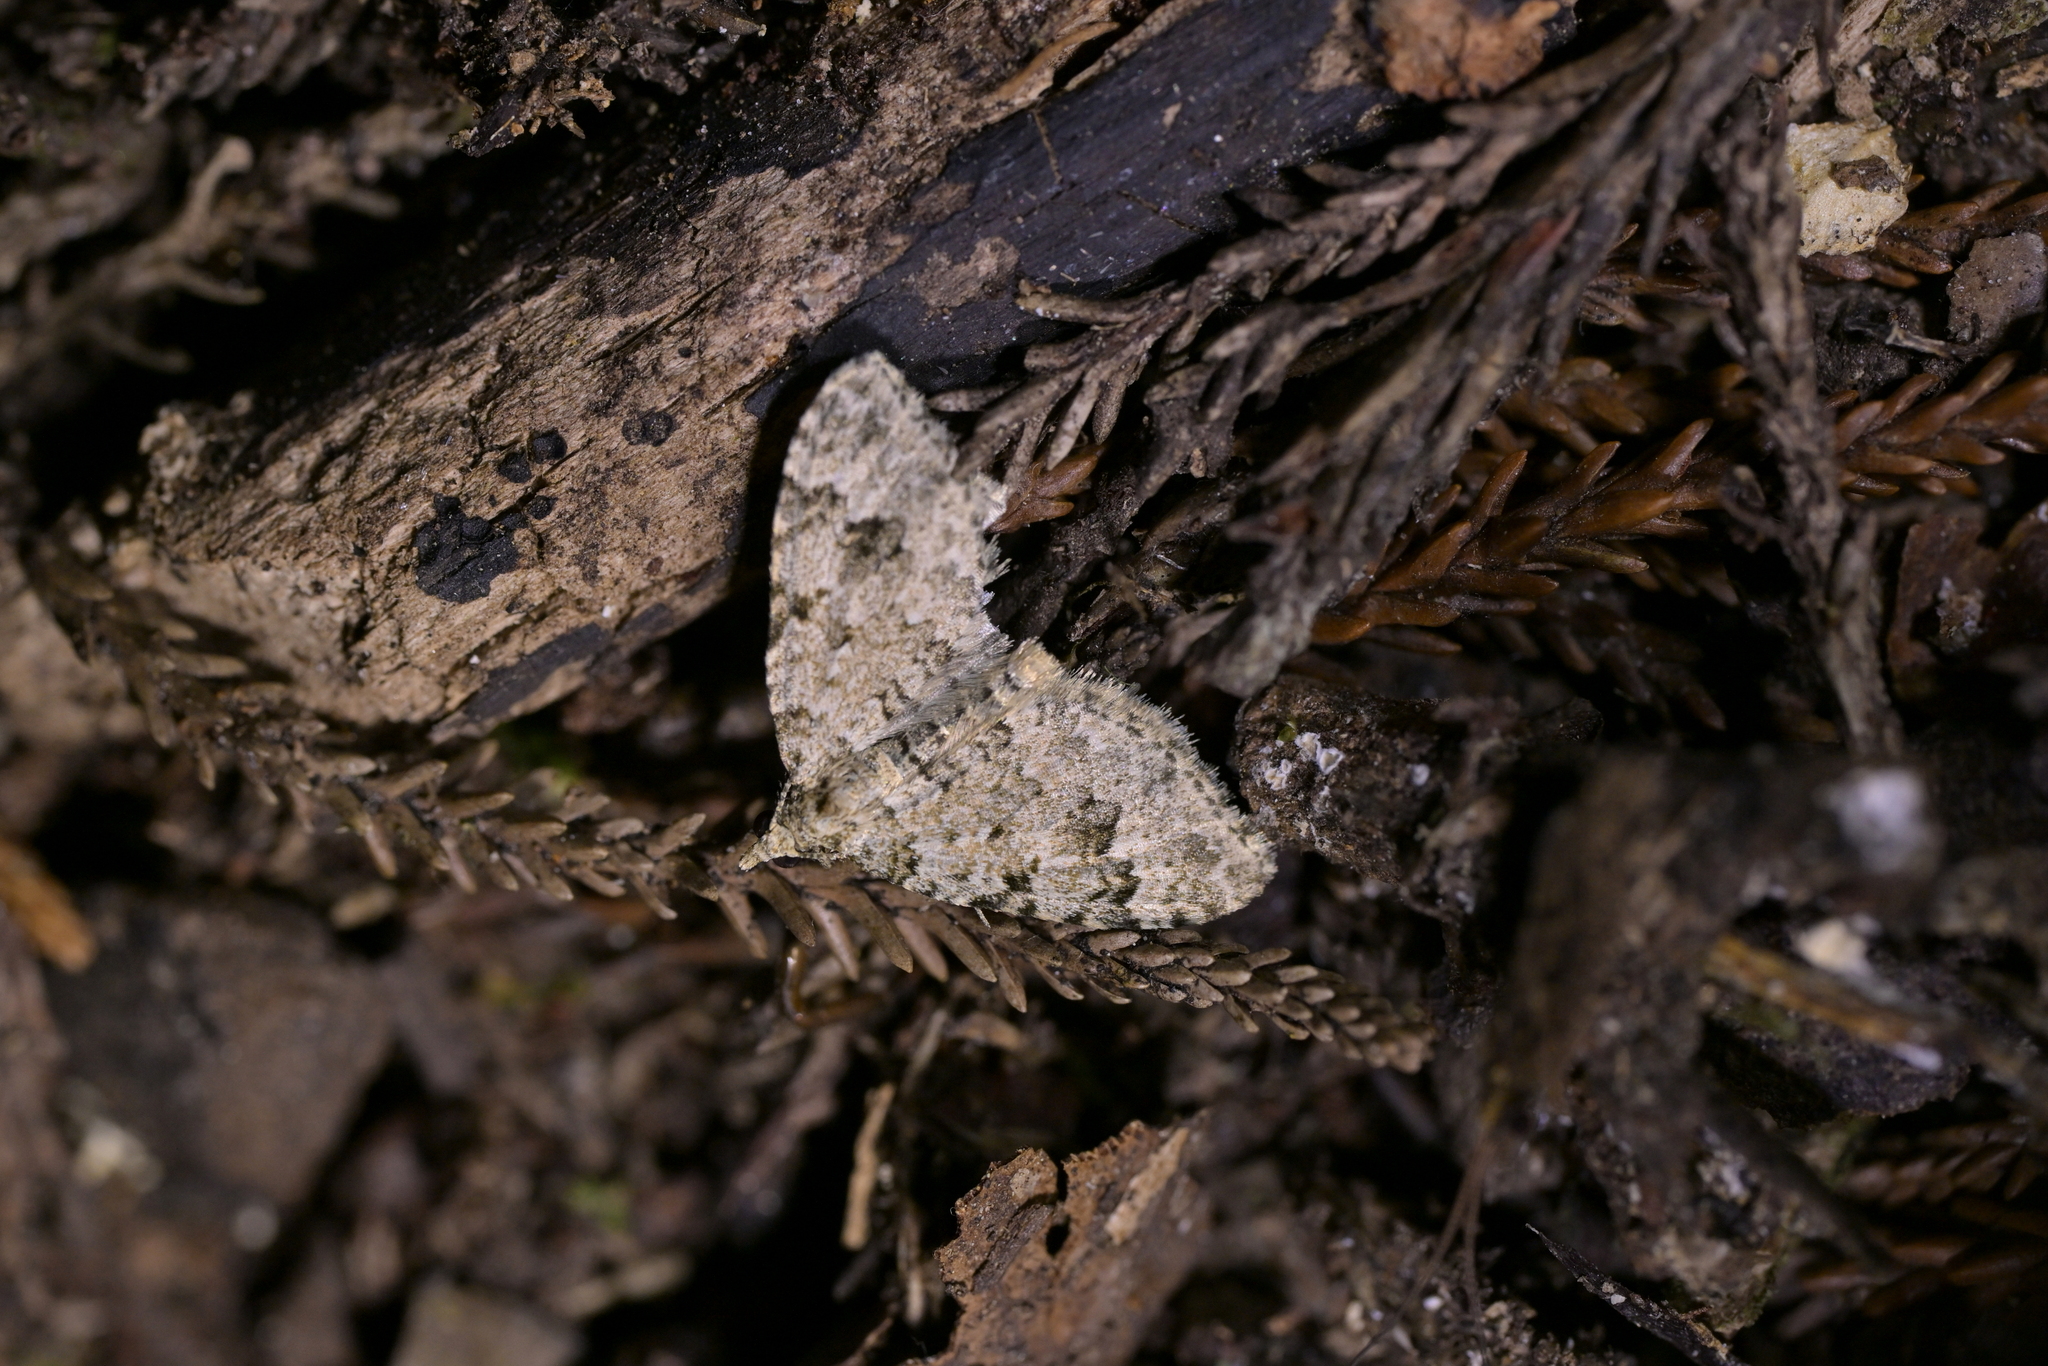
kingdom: Animalia
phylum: Arthropoda
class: Insecta
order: Lepidoptera
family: Geometridae
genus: Helastia
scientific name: Helastia cinerearia
